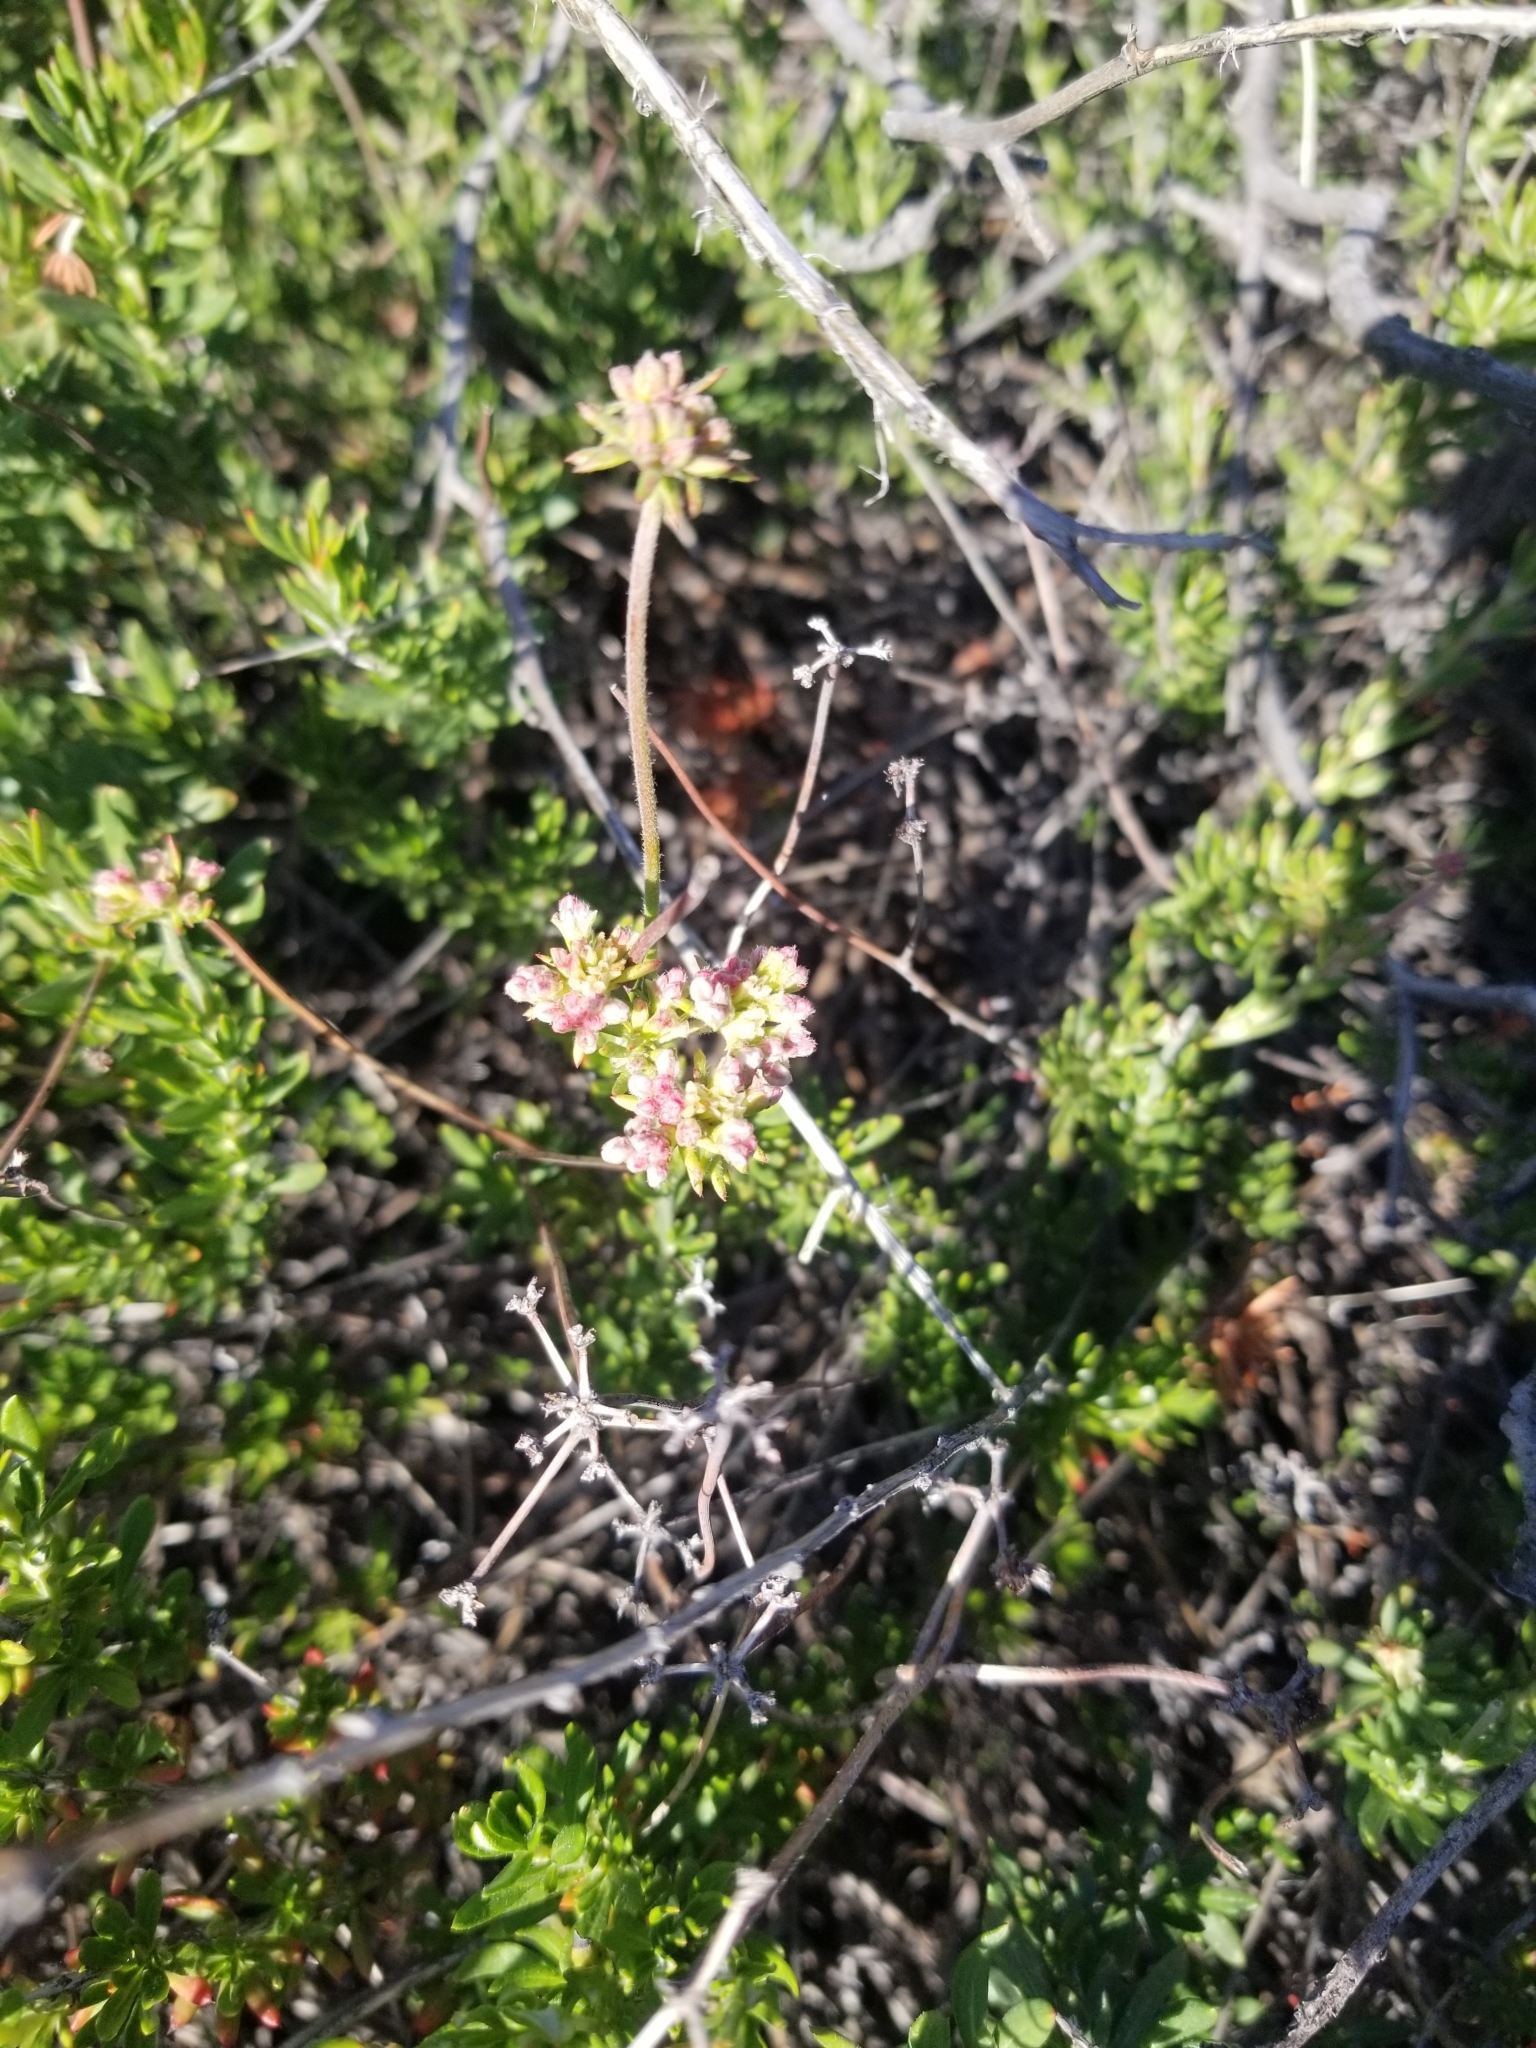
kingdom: Plantae
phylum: Tracheophyta
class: Magnoliopsida
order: Caryophyllales
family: Polygonaceae
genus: Eriogonum
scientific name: Eriogonum fasciculatum
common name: California wild buckwheat
